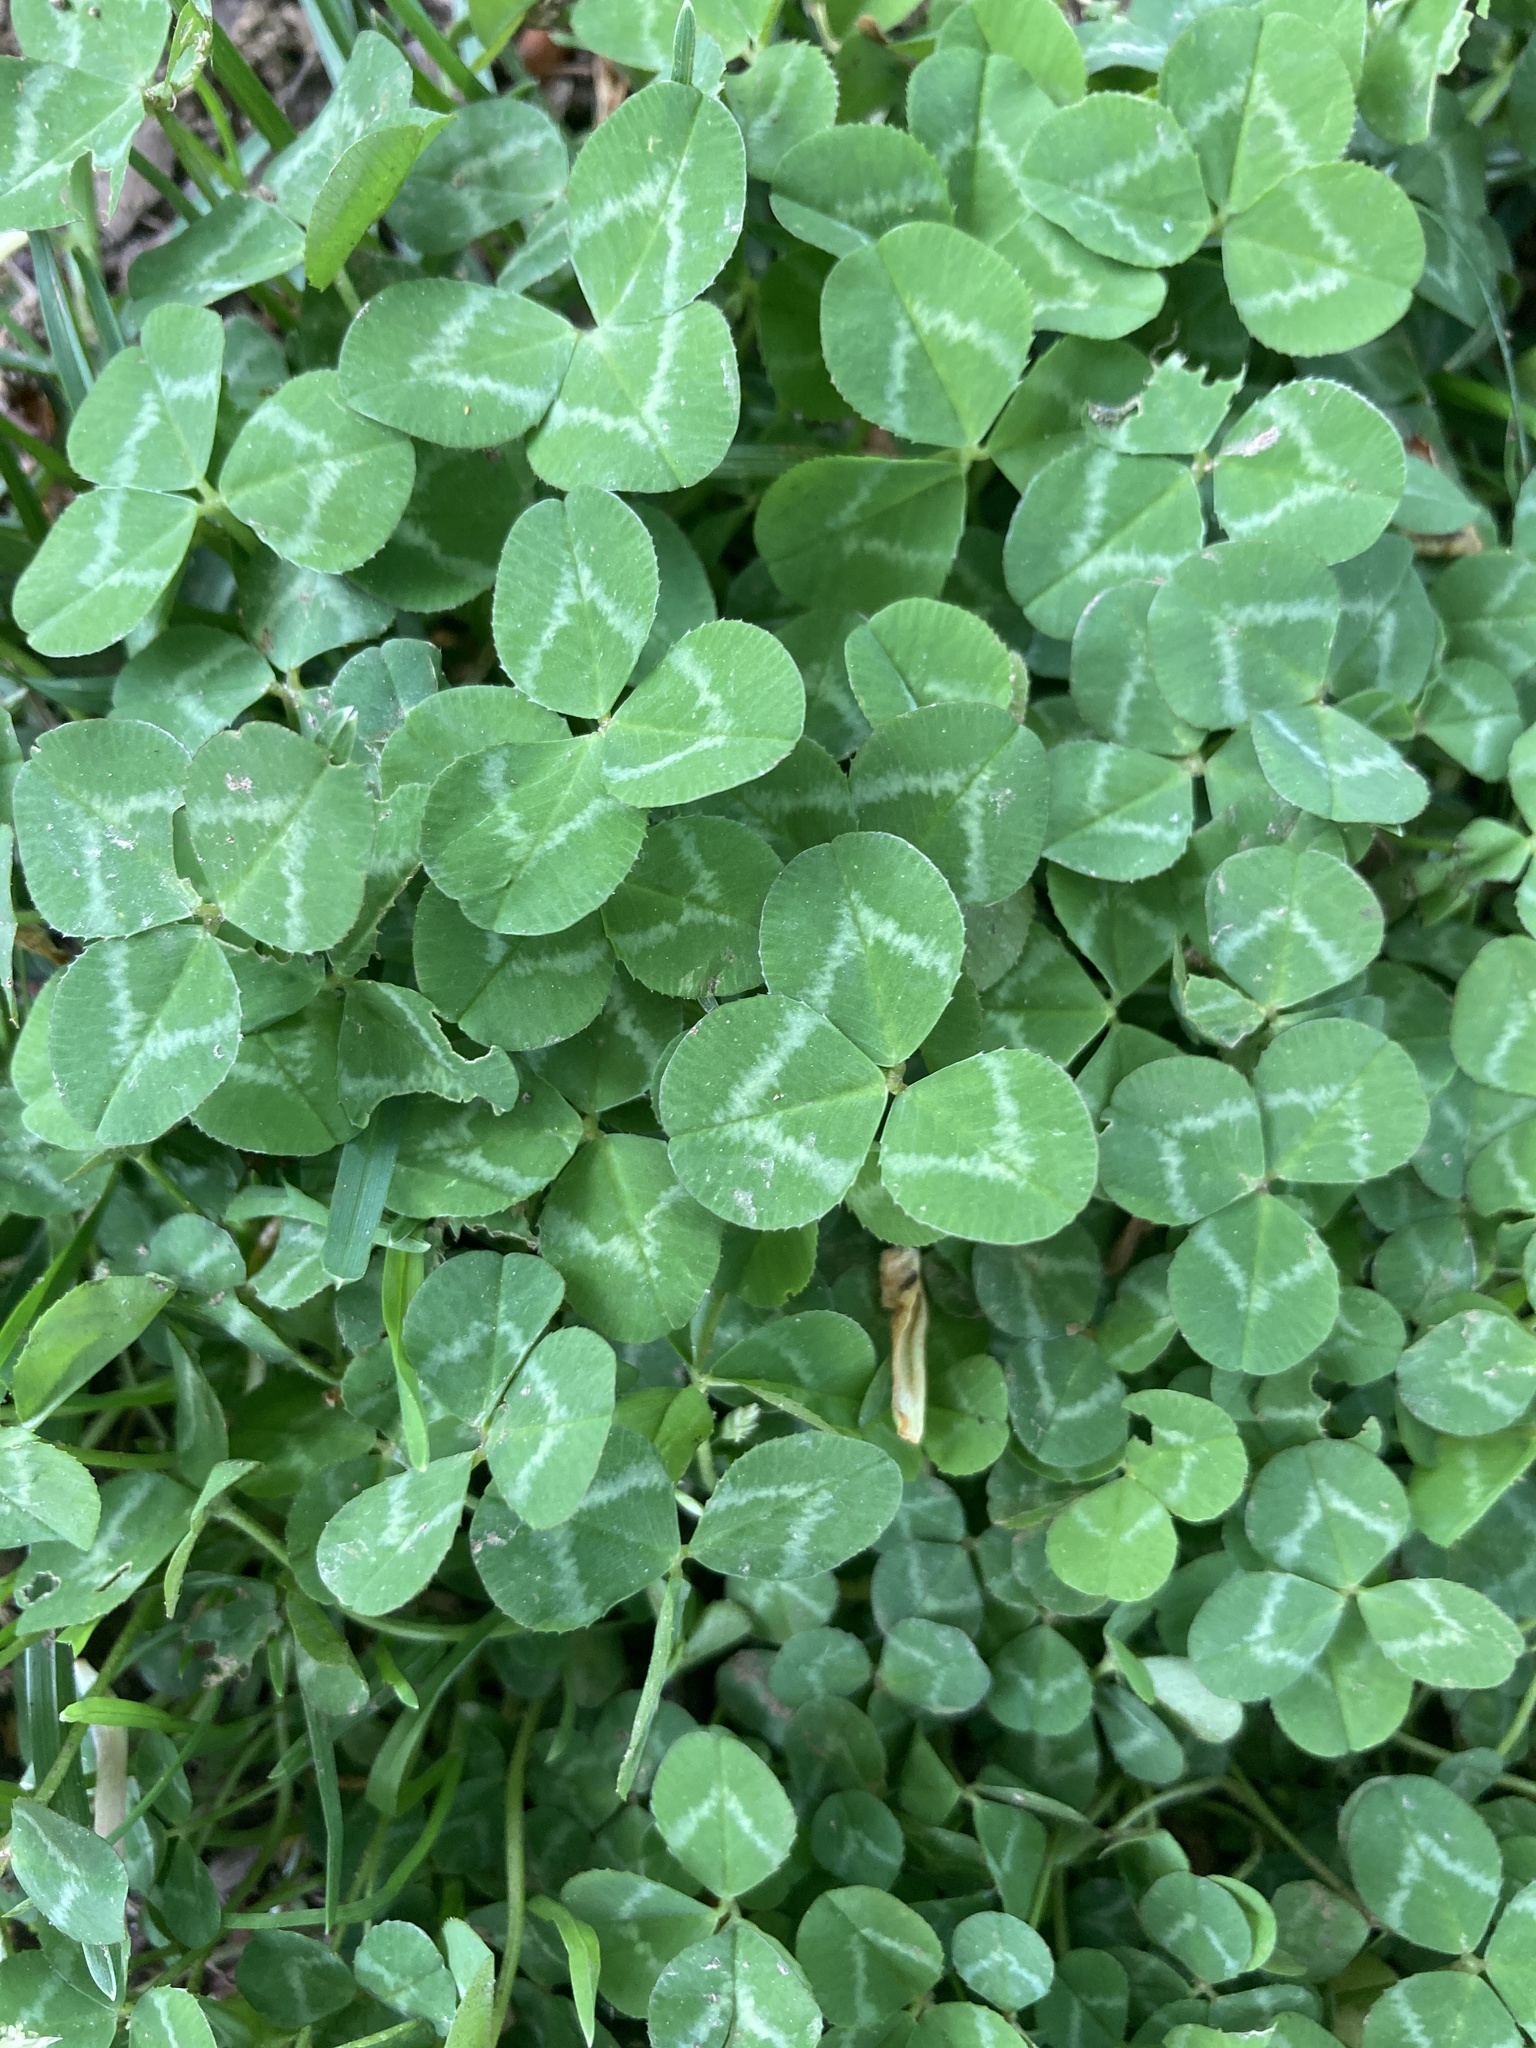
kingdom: Plantae
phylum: Tracheophyta
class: Magnoliopsida
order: Fabales
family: Fabaceae
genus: Trifolium
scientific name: Trifolium repens
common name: White clover
